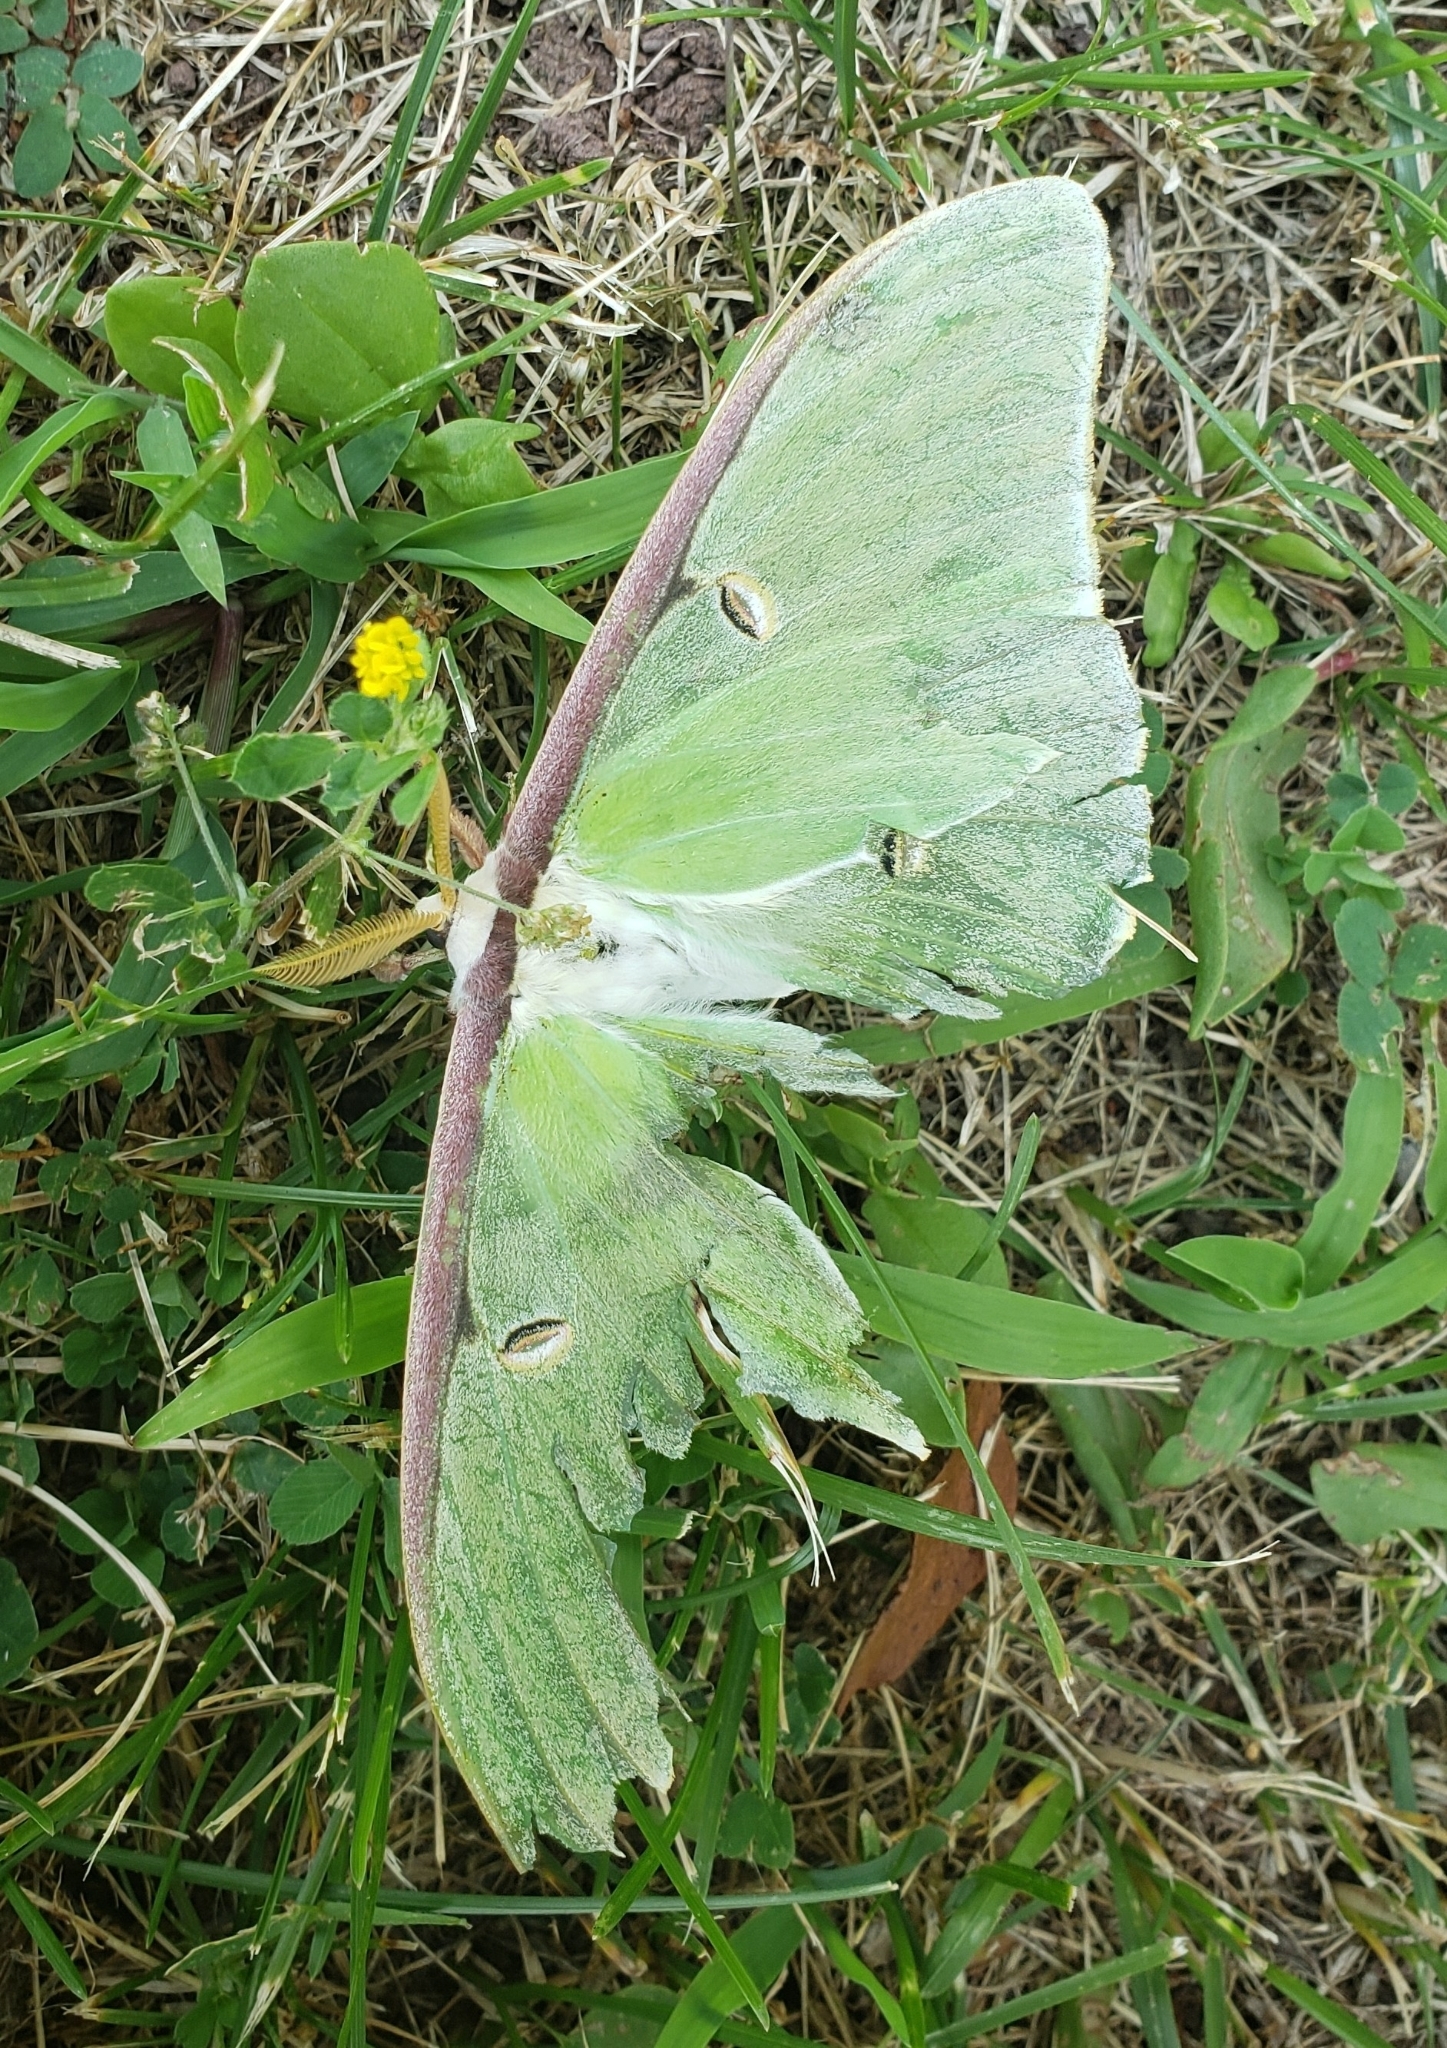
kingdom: Animalia
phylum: Arthropoda
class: Insecta
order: Lepidoptera
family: Saturniidae
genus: Actias
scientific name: Actias luna
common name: Luna moth
